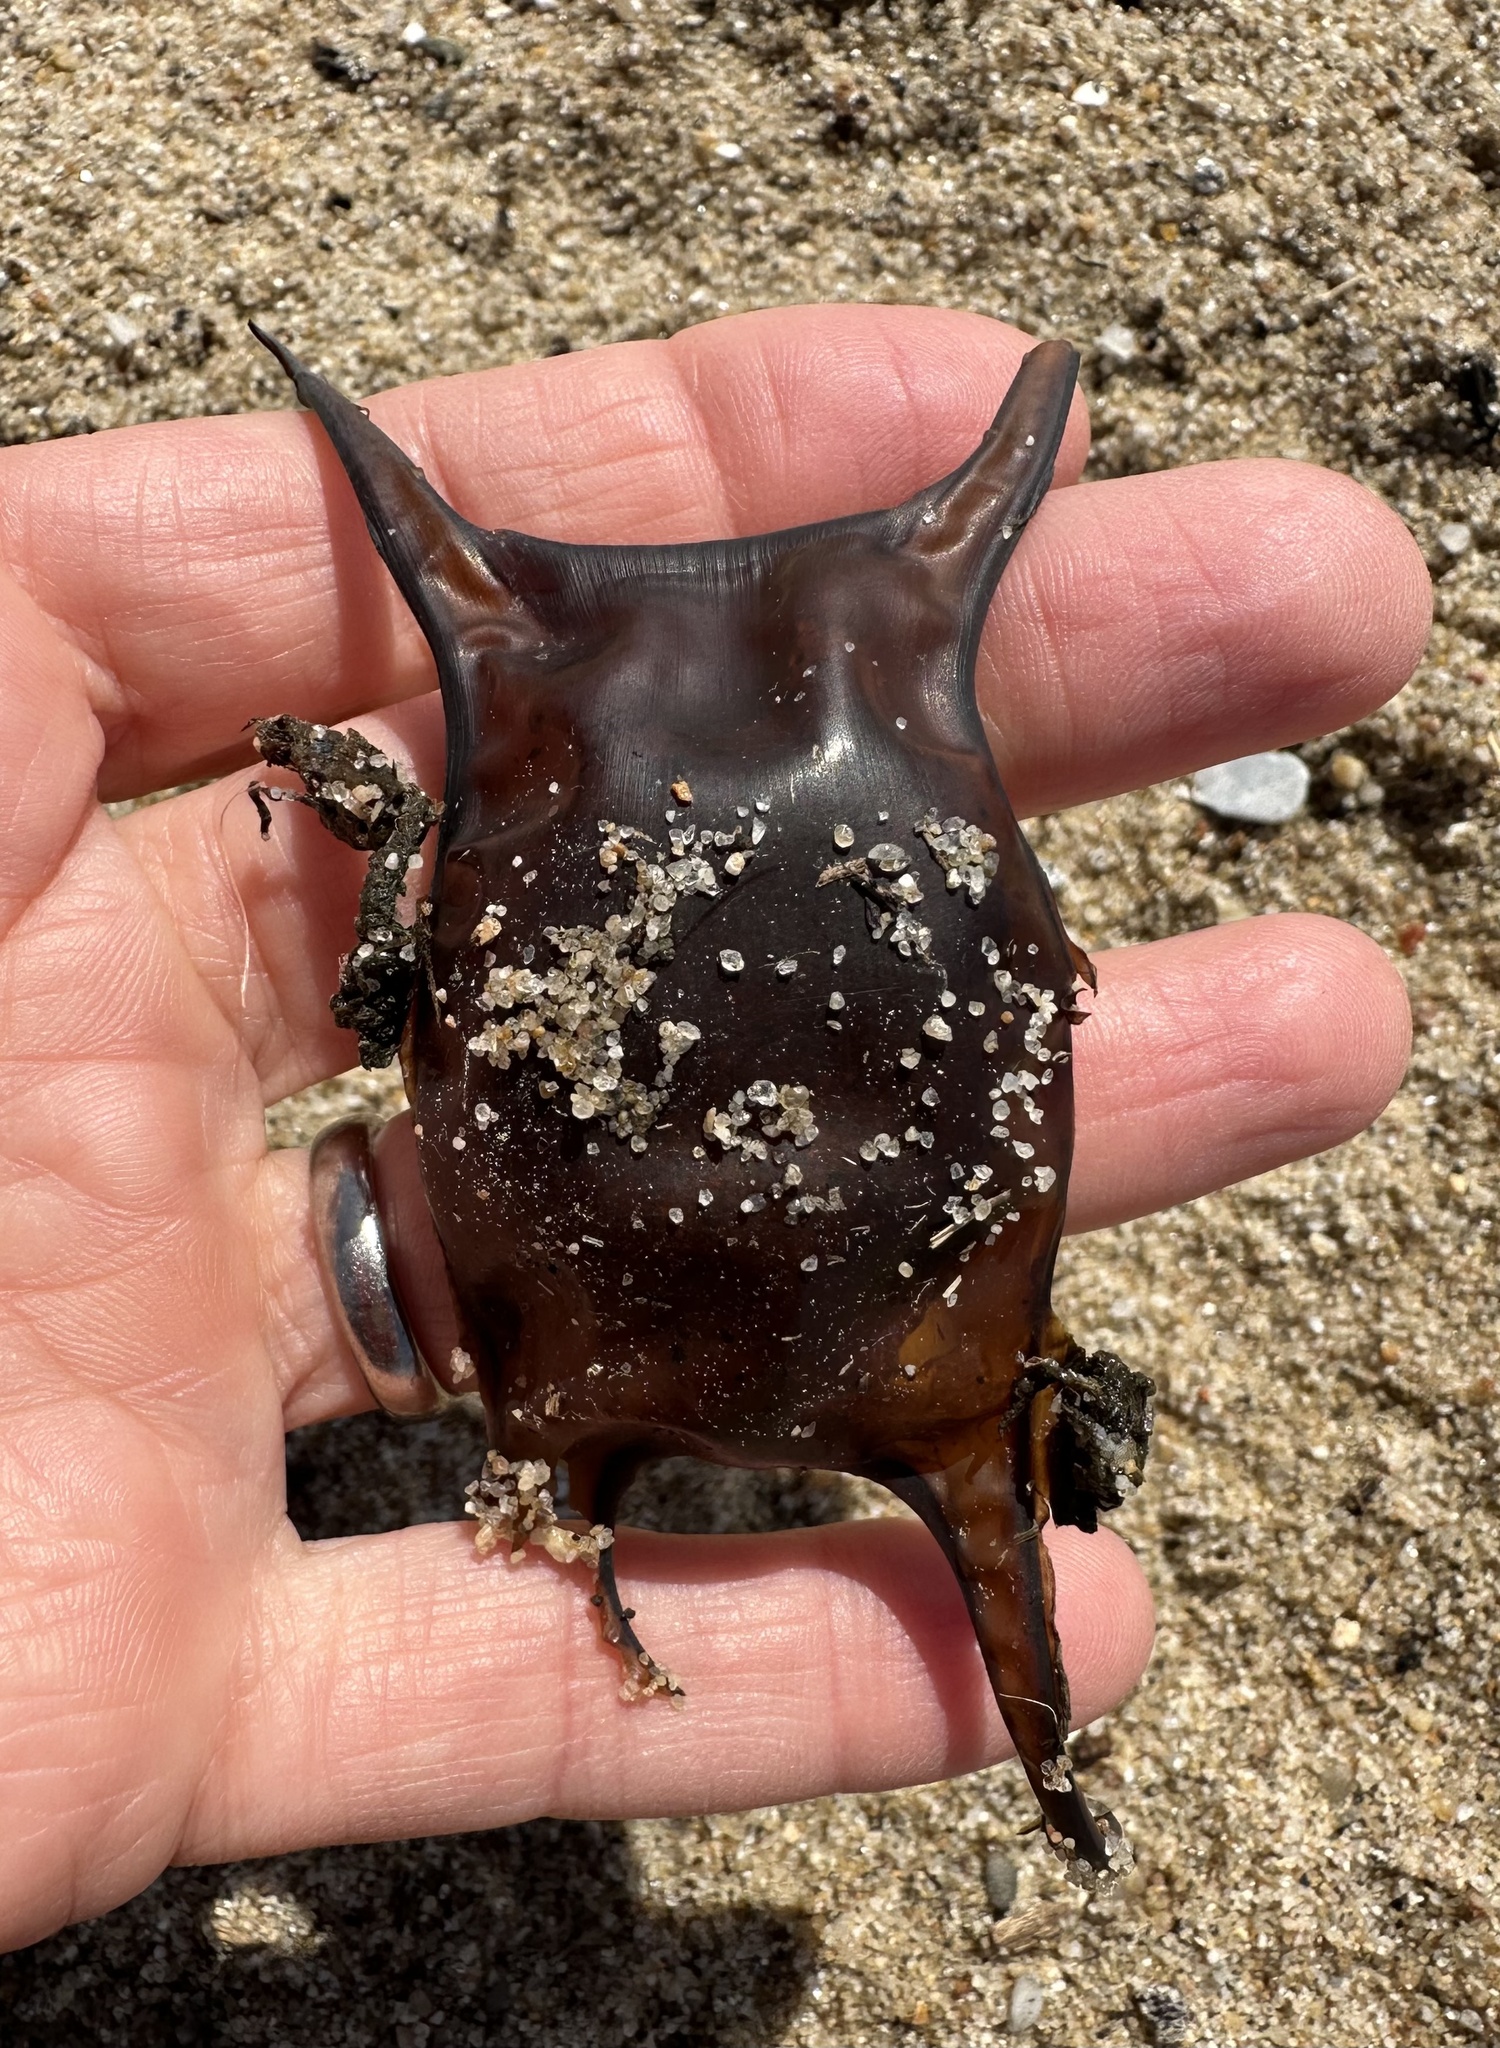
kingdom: Animalia
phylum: Chordata
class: Elasmobranchii
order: Rajiformes
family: Rajidae
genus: Raja
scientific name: Raja montagui
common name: Spotted ray
